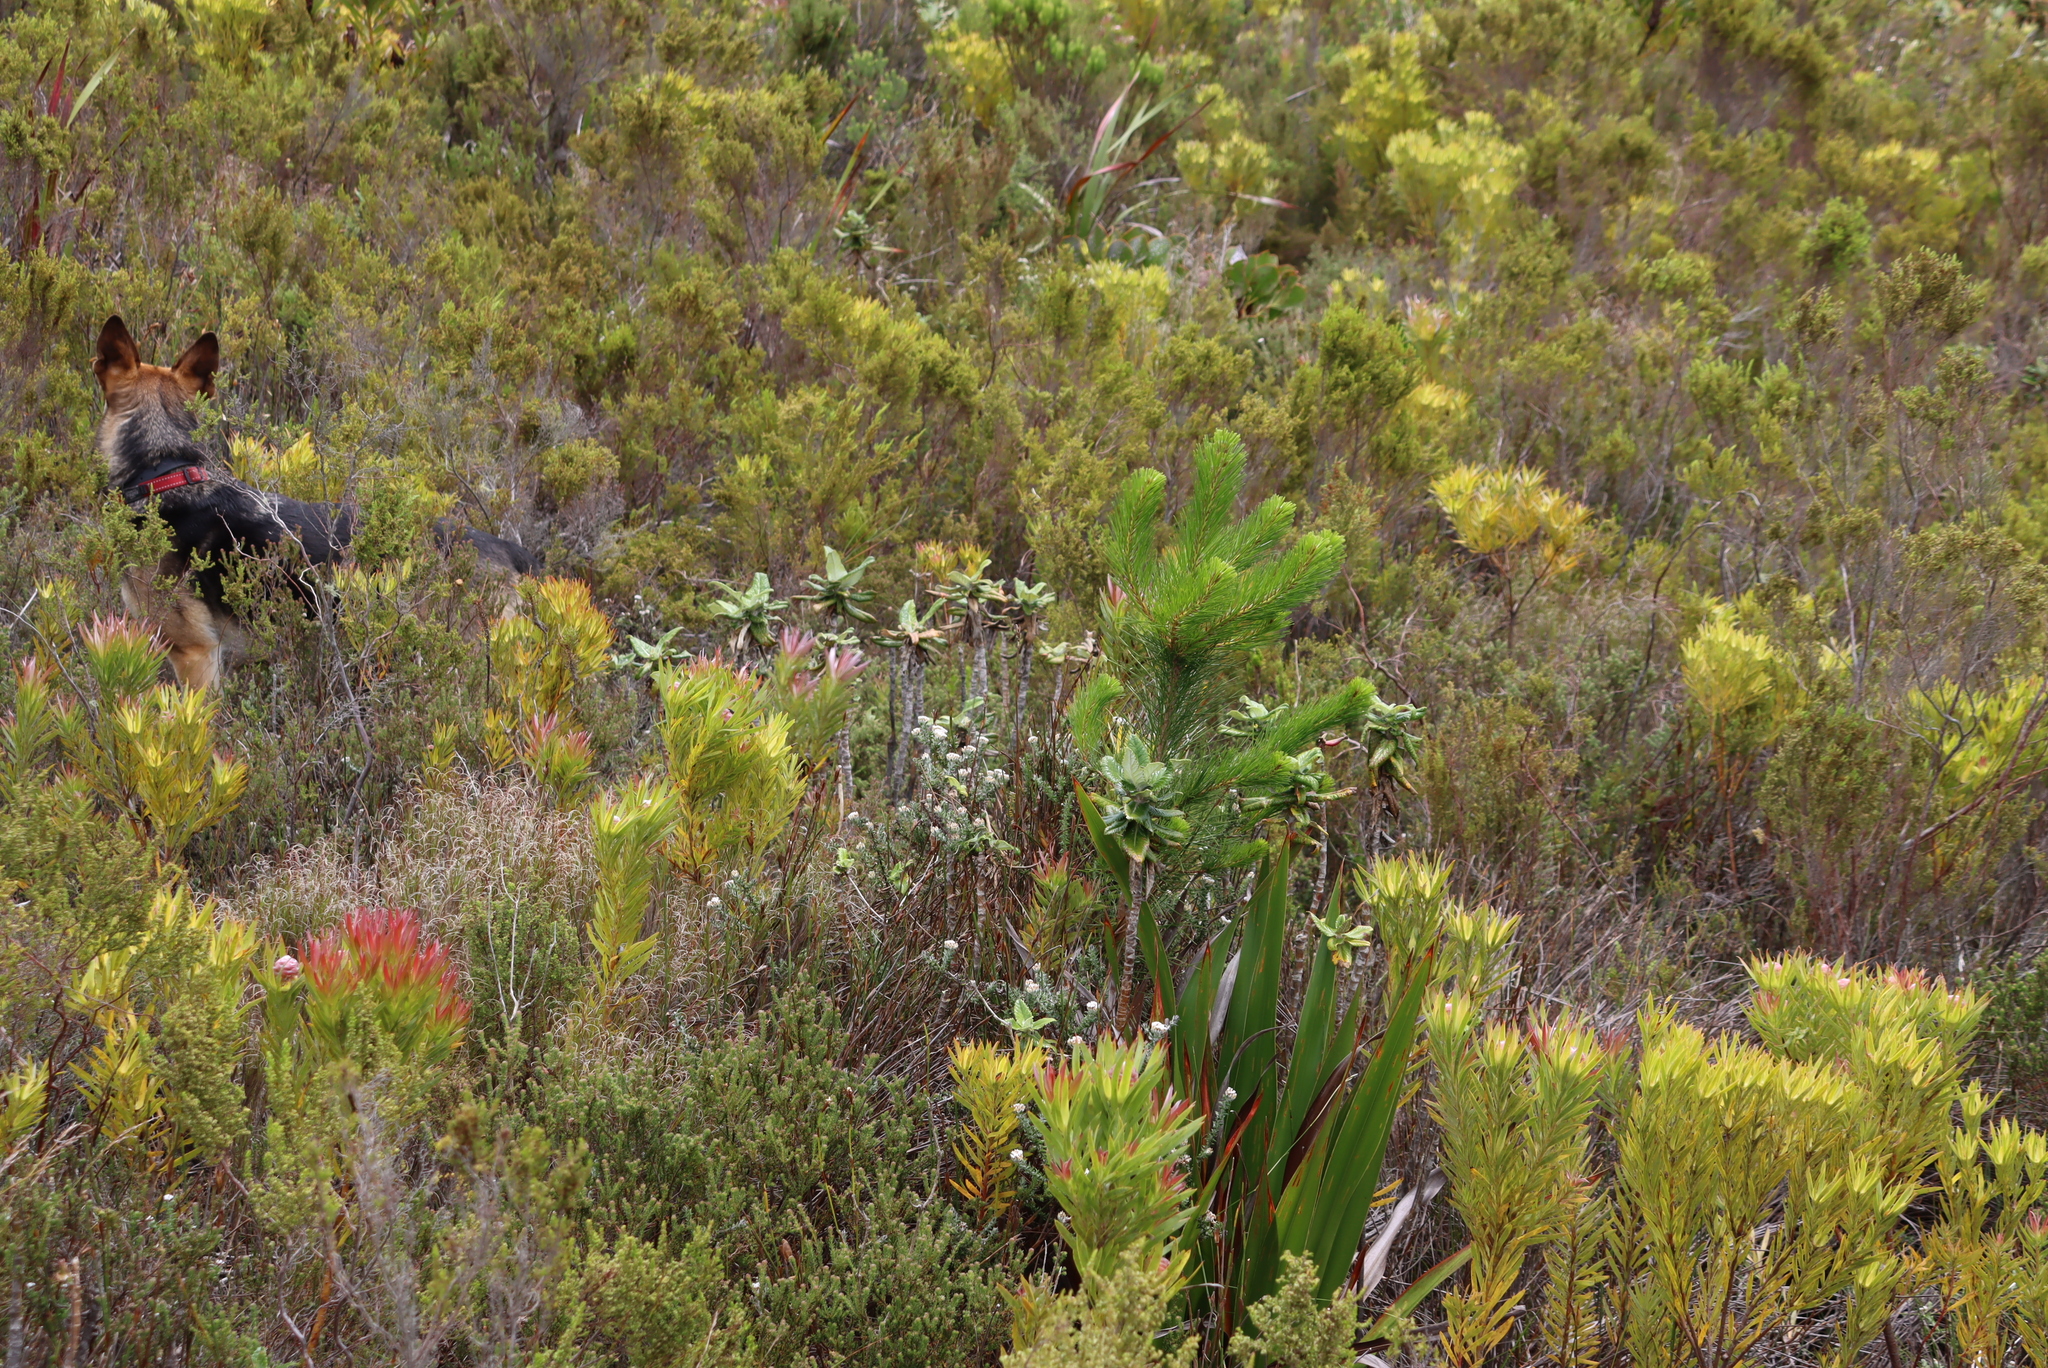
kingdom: Plantae
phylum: Tracheophyta
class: Pinopsida
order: Pinales
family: Pinaceae
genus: Pinus
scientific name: Pinus radiata
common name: Monterey pine
